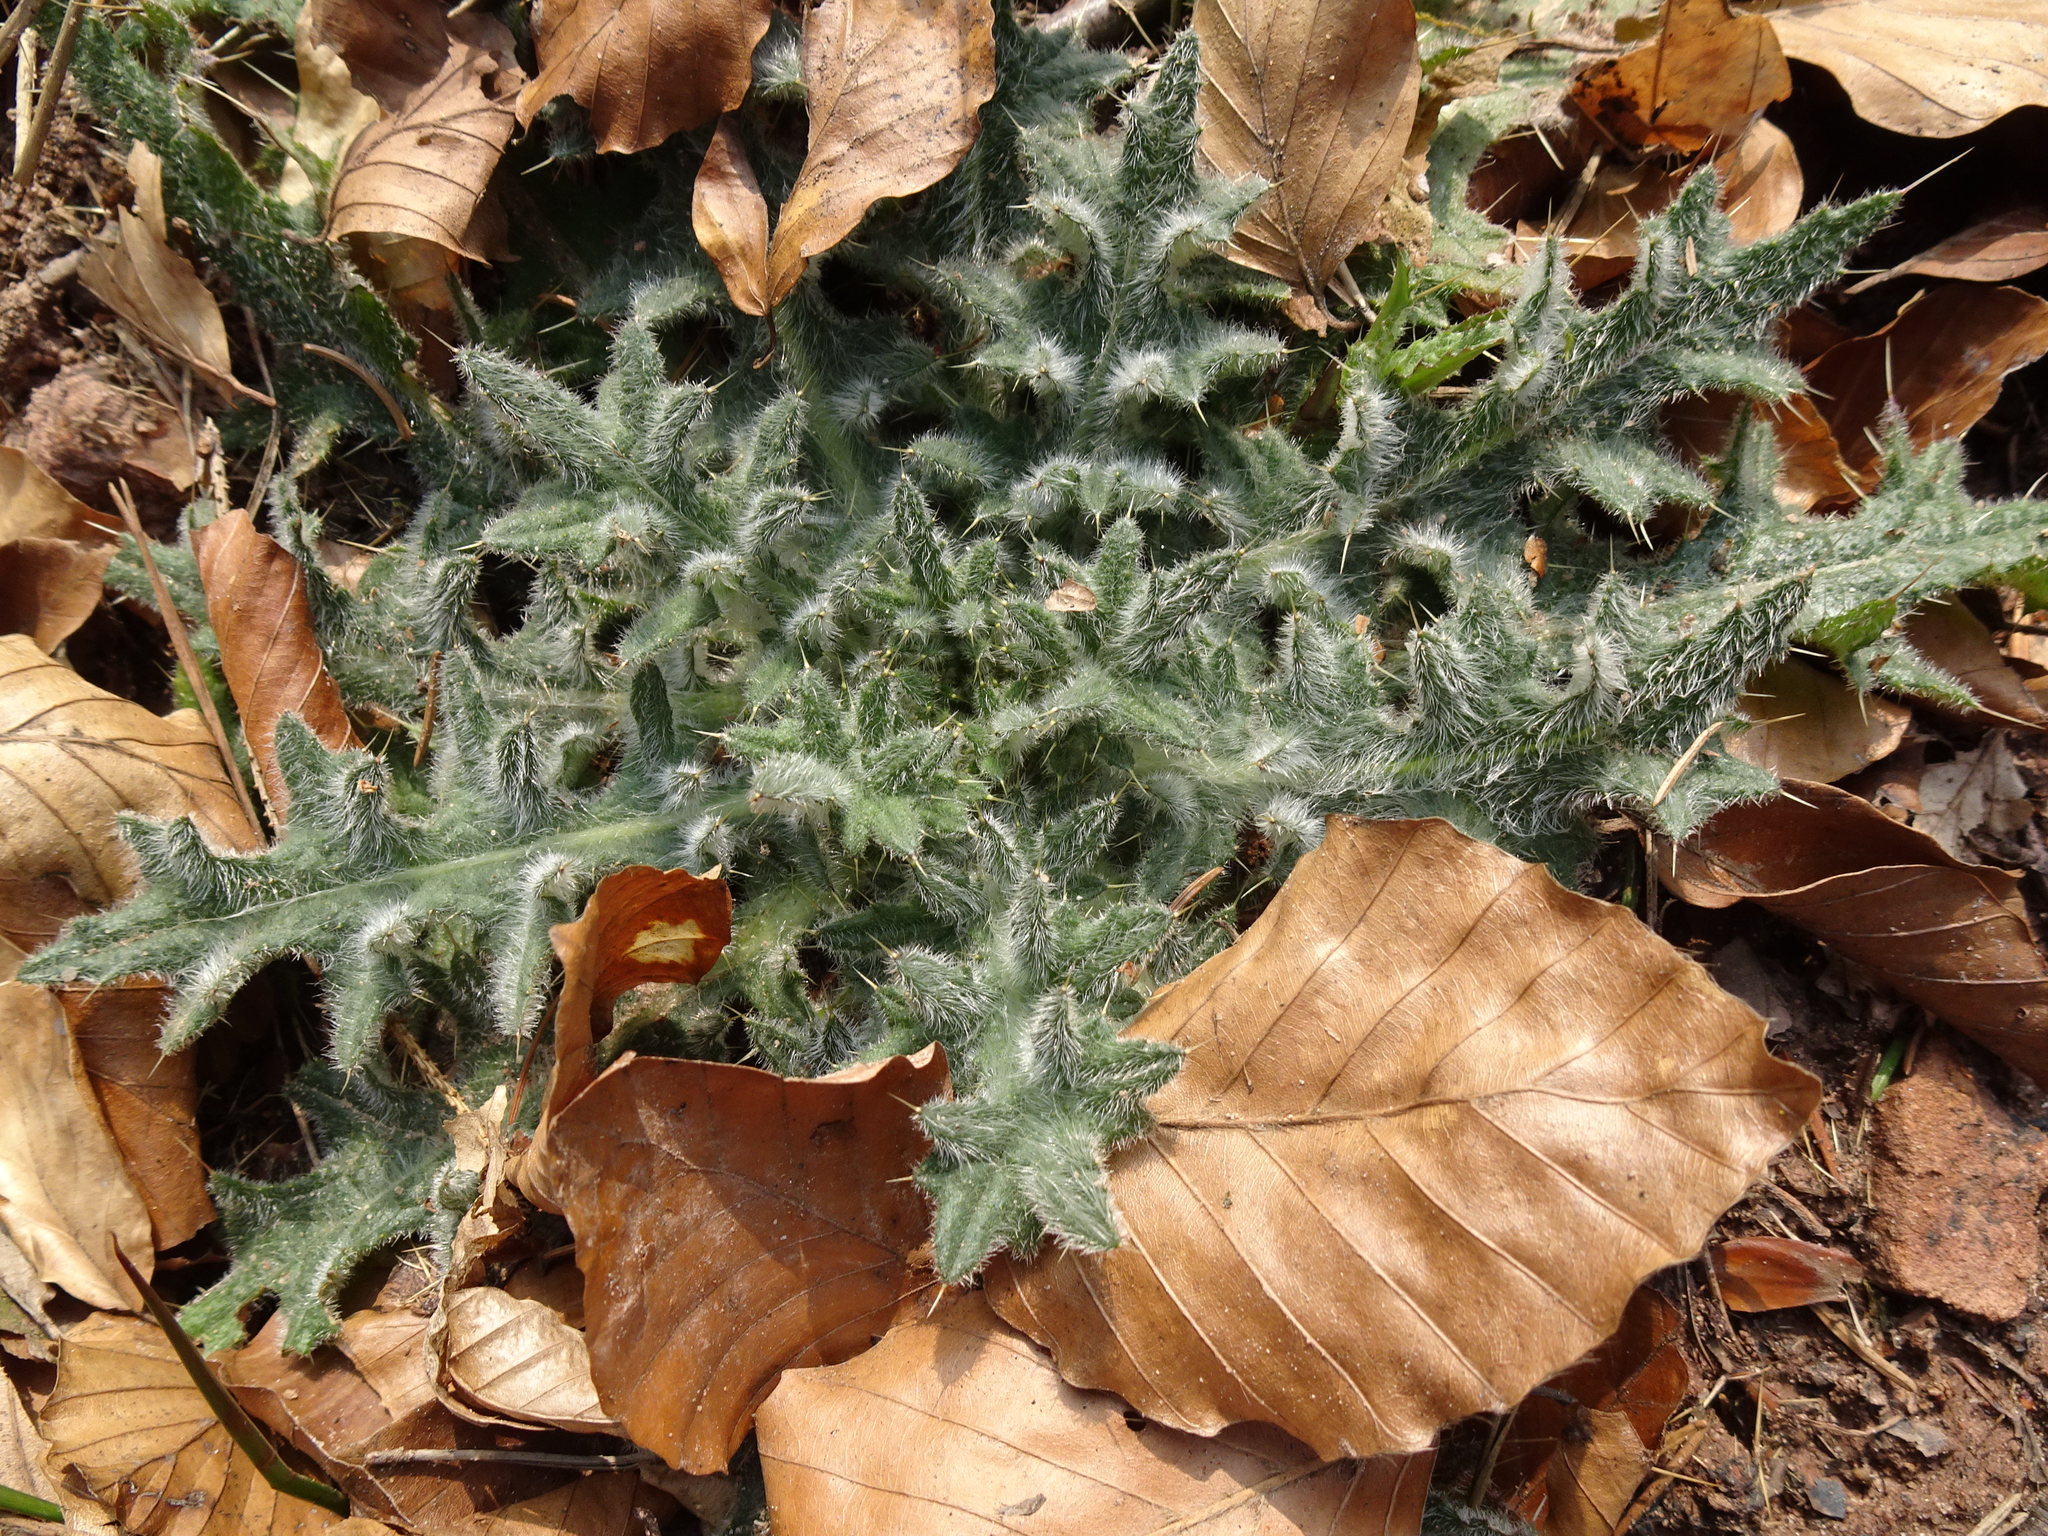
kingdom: Plantae
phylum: Tracheophyta
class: Magnoliopsida
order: Asterales
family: Asteraceae
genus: Cirsium
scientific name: Cirsium vulgare
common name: Bull thistle
